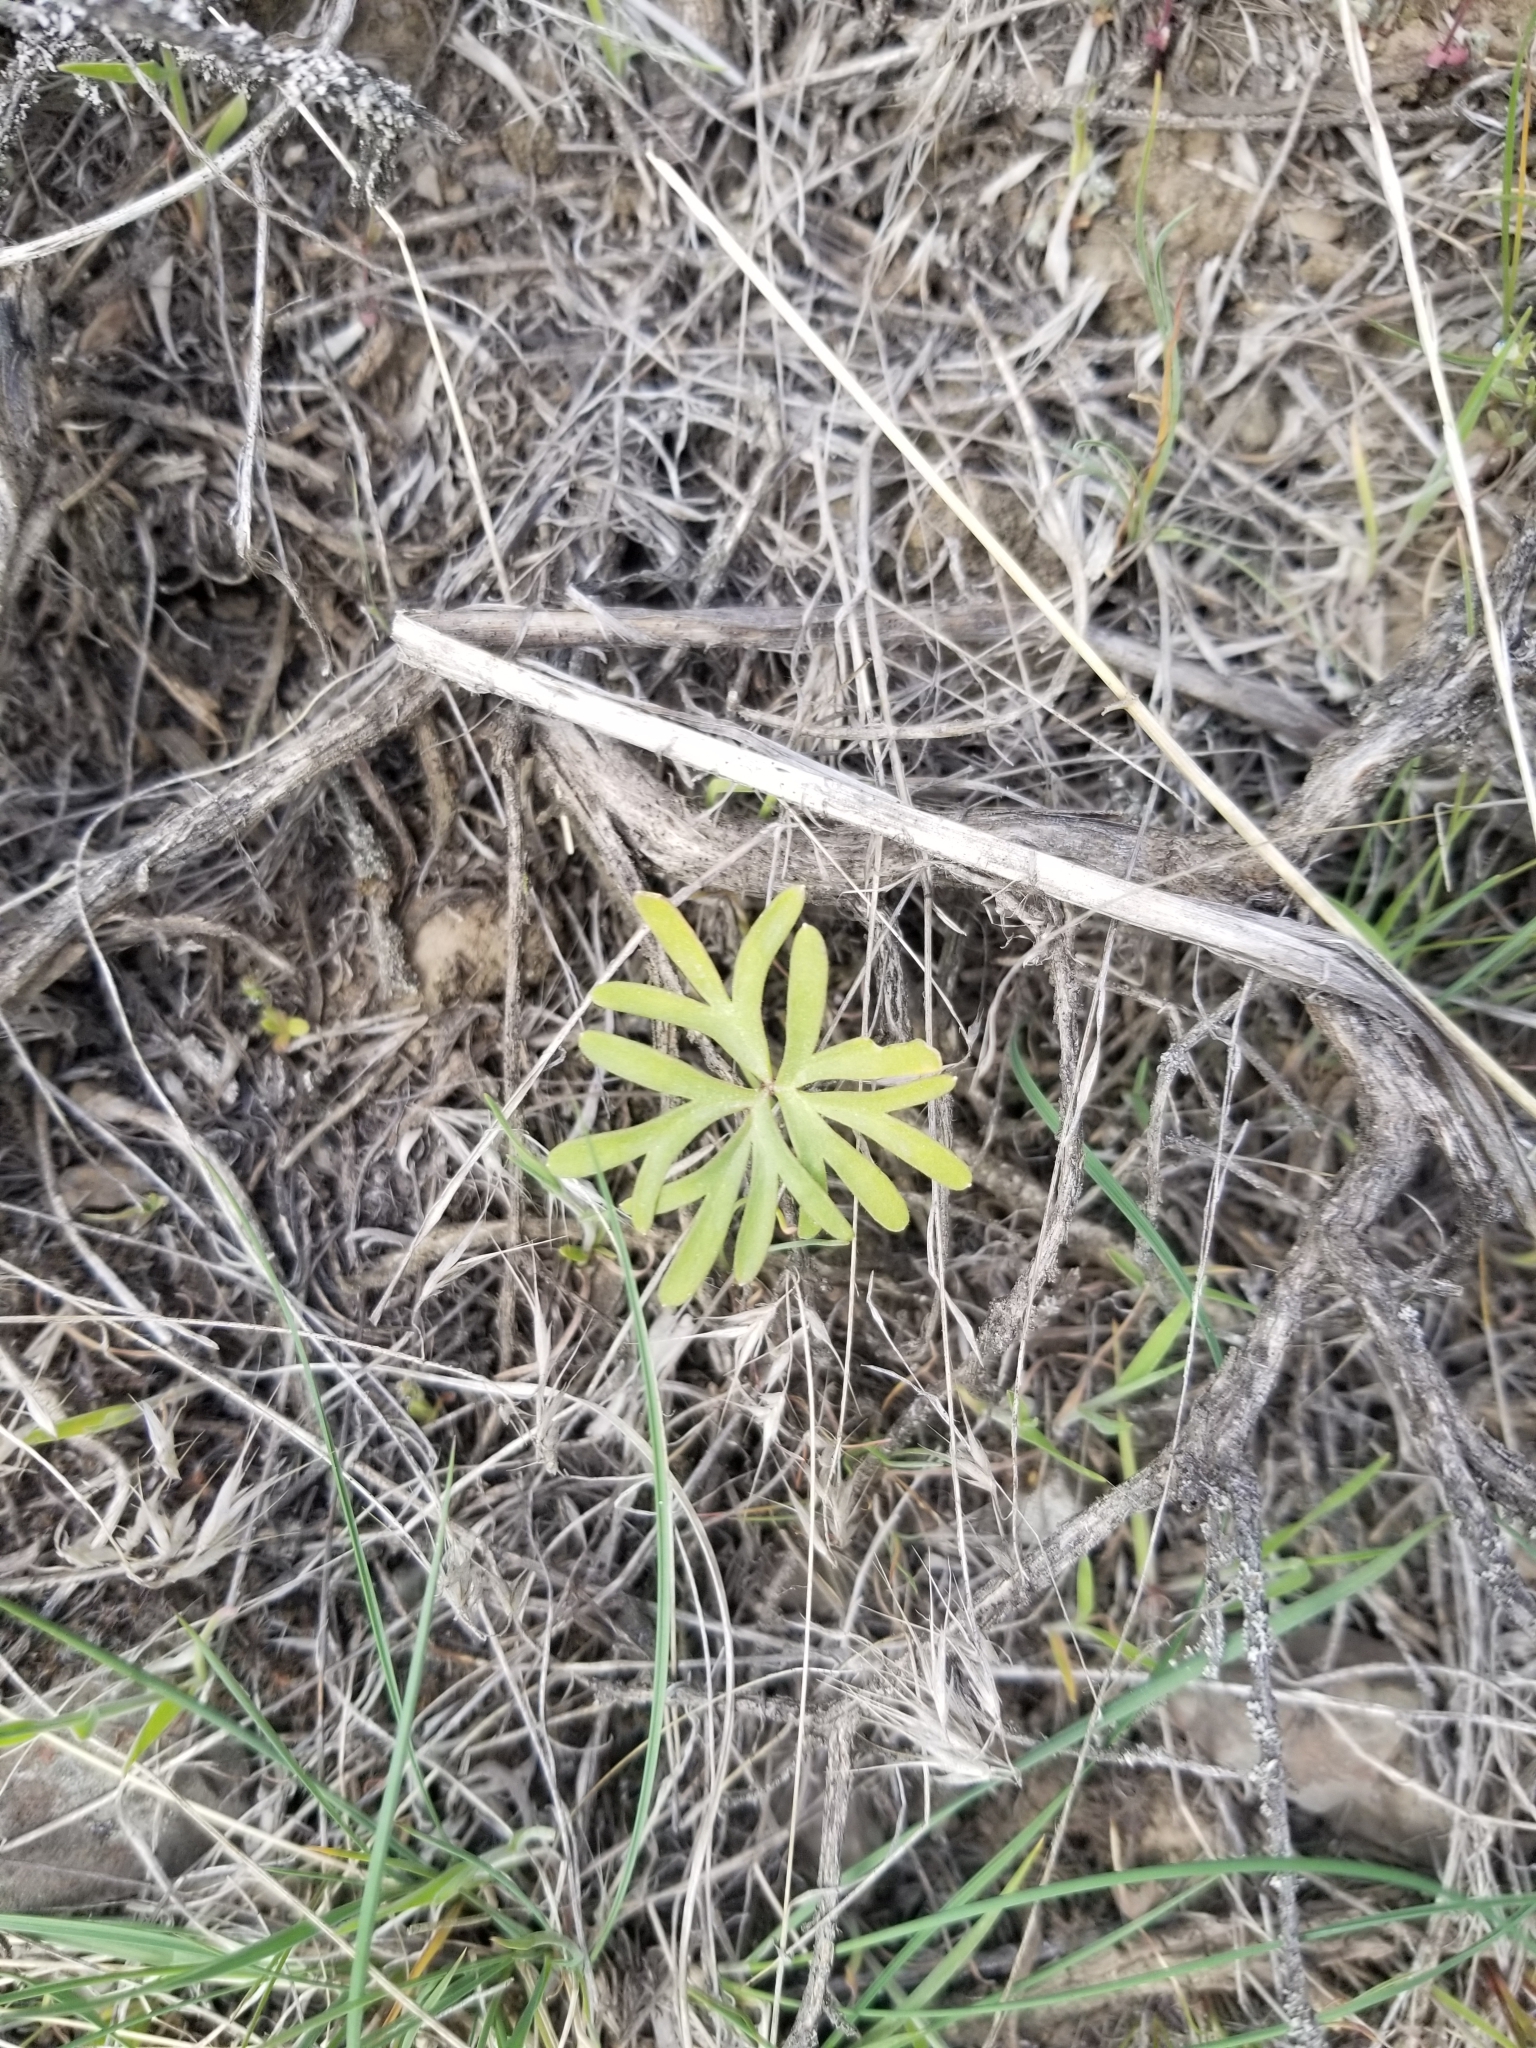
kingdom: Plantae
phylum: Tracheophyta
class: Magnoliopsida
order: Ranunculales
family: Ranunculaceae
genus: Delphinium
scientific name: Delphinium nuttallianum
